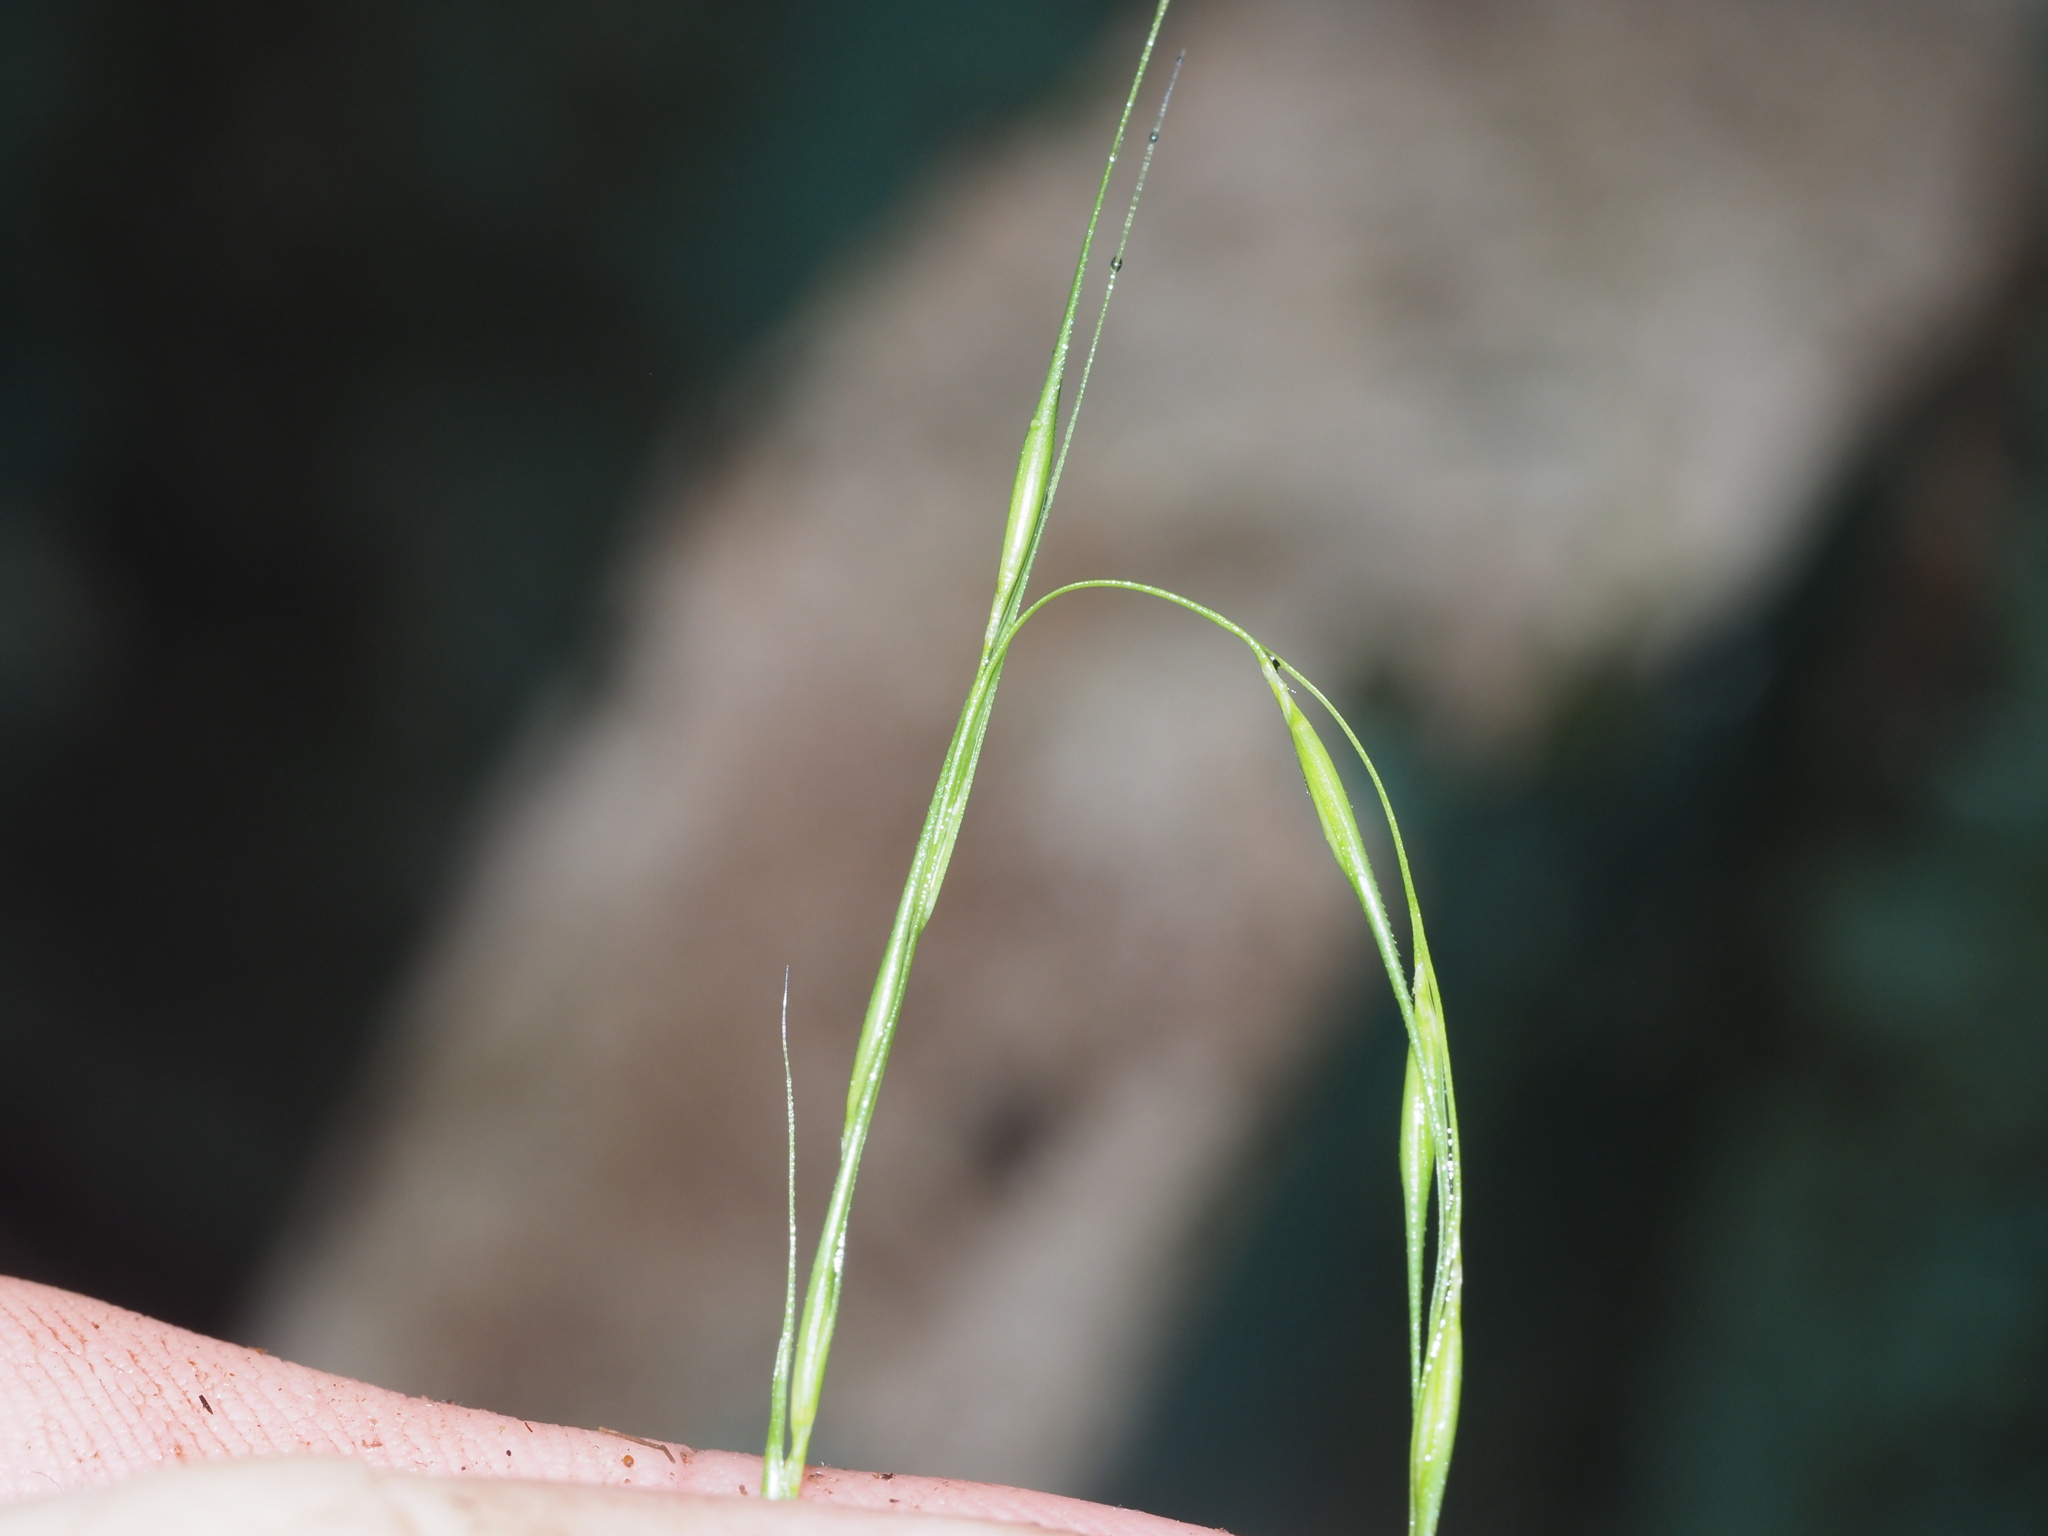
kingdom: Plantae
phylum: Tracheophyta
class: Liliopsida
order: Poales
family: Poaceae
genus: Microlaena
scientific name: Microlaena stipoides
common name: Meadow ricegrass
